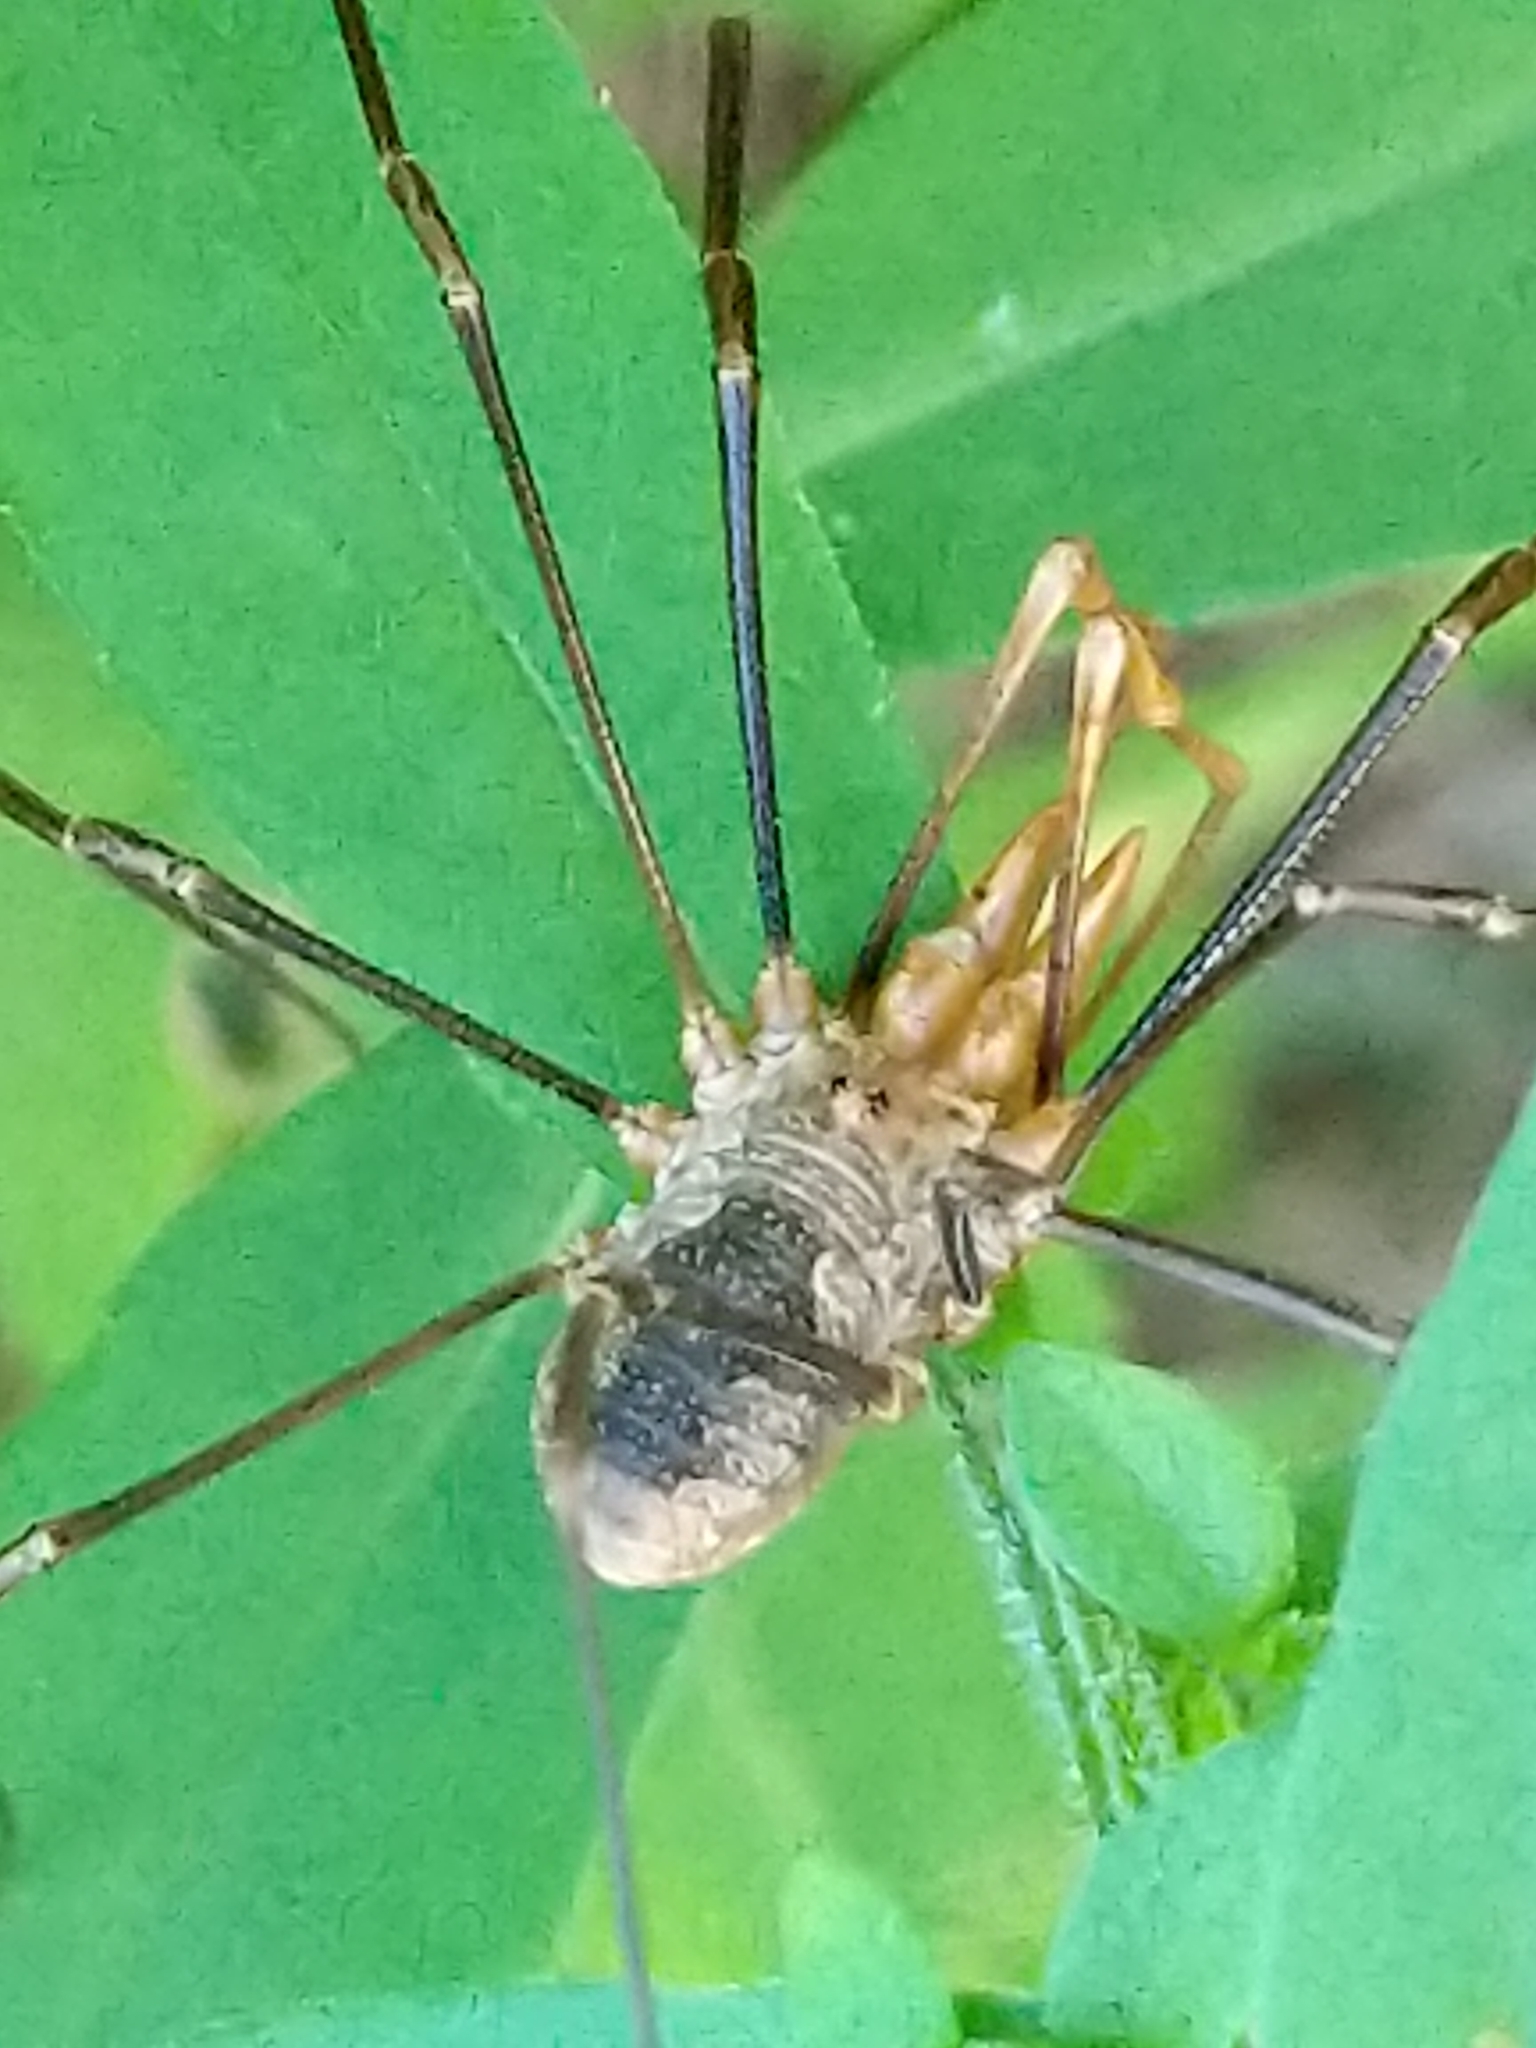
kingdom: Animalia
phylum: Arthropoda
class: Arachnida
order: Opiliones
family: Phalangiidae
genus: Phalangium
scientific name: Phalangium opilio
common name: Daddy longleg
